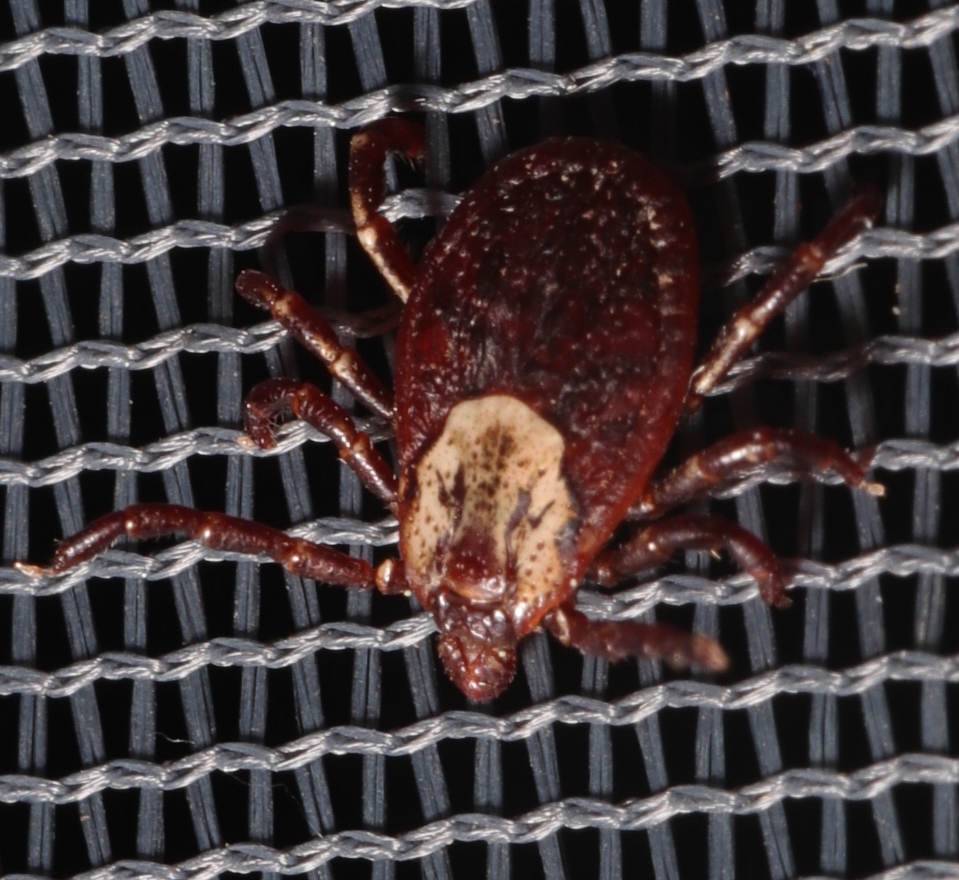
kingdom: Animalia
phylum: Arthropoda
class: Arachnida
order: Ixodida
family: Ixodidae
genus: Dermacentor
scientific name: Dermacentor variabilis
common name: American dog tick
